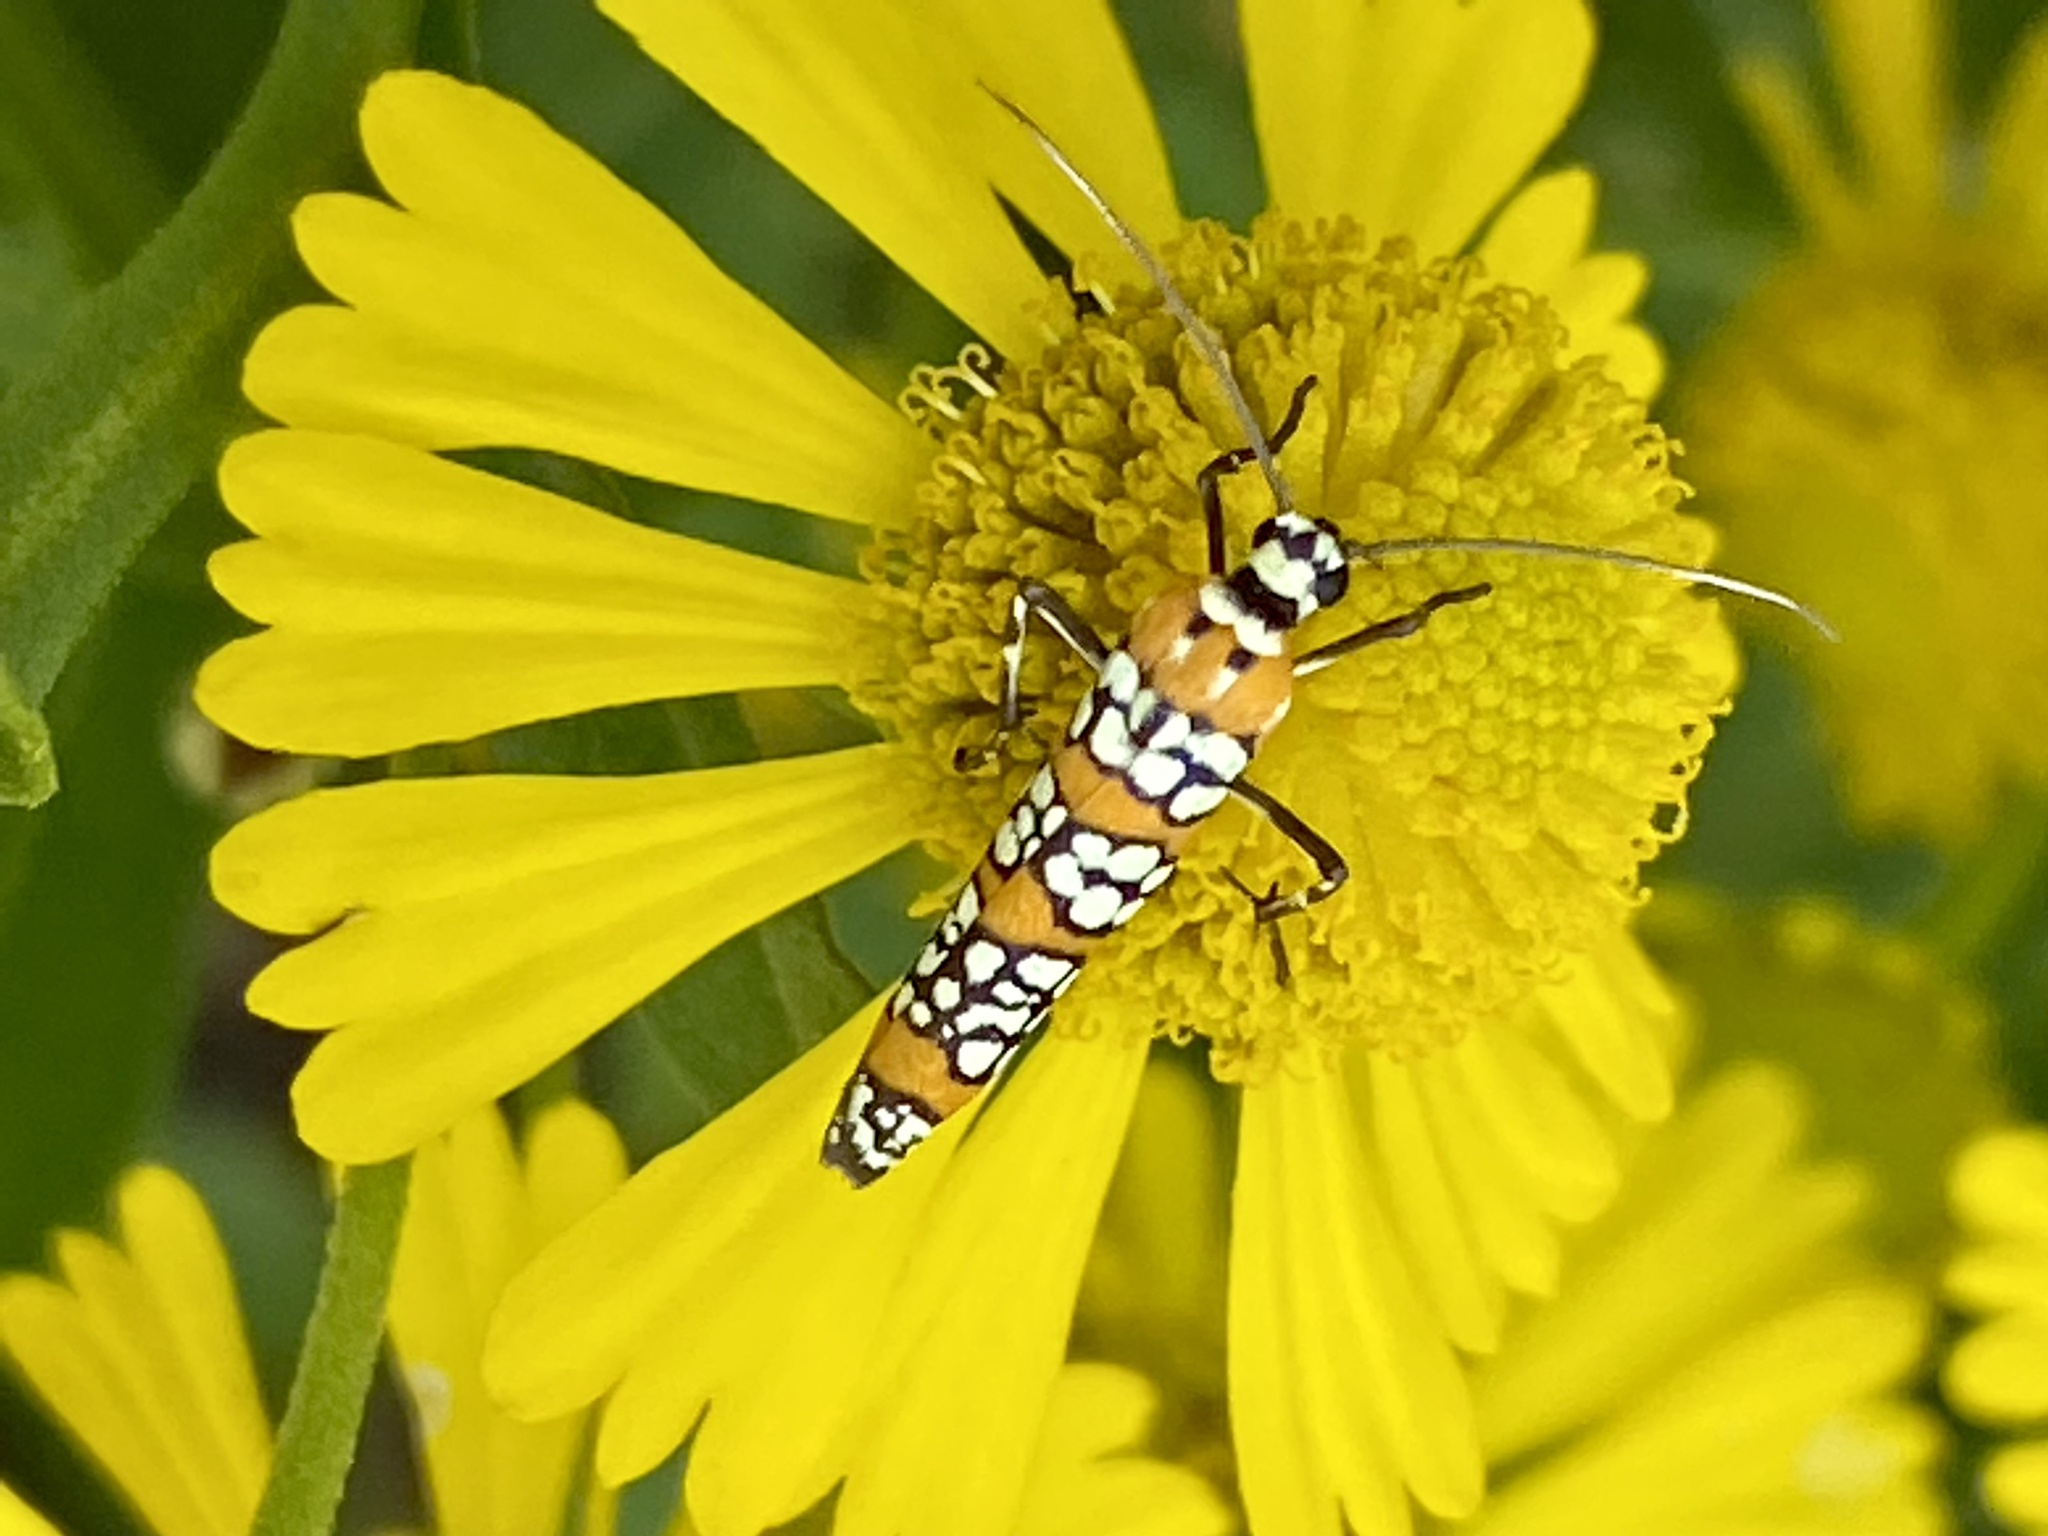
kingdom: Animalia
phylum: Arthropoda
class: Insecta
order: Lepidoptera
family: Attevidae
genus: Atteva
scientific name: Atteva punctella
